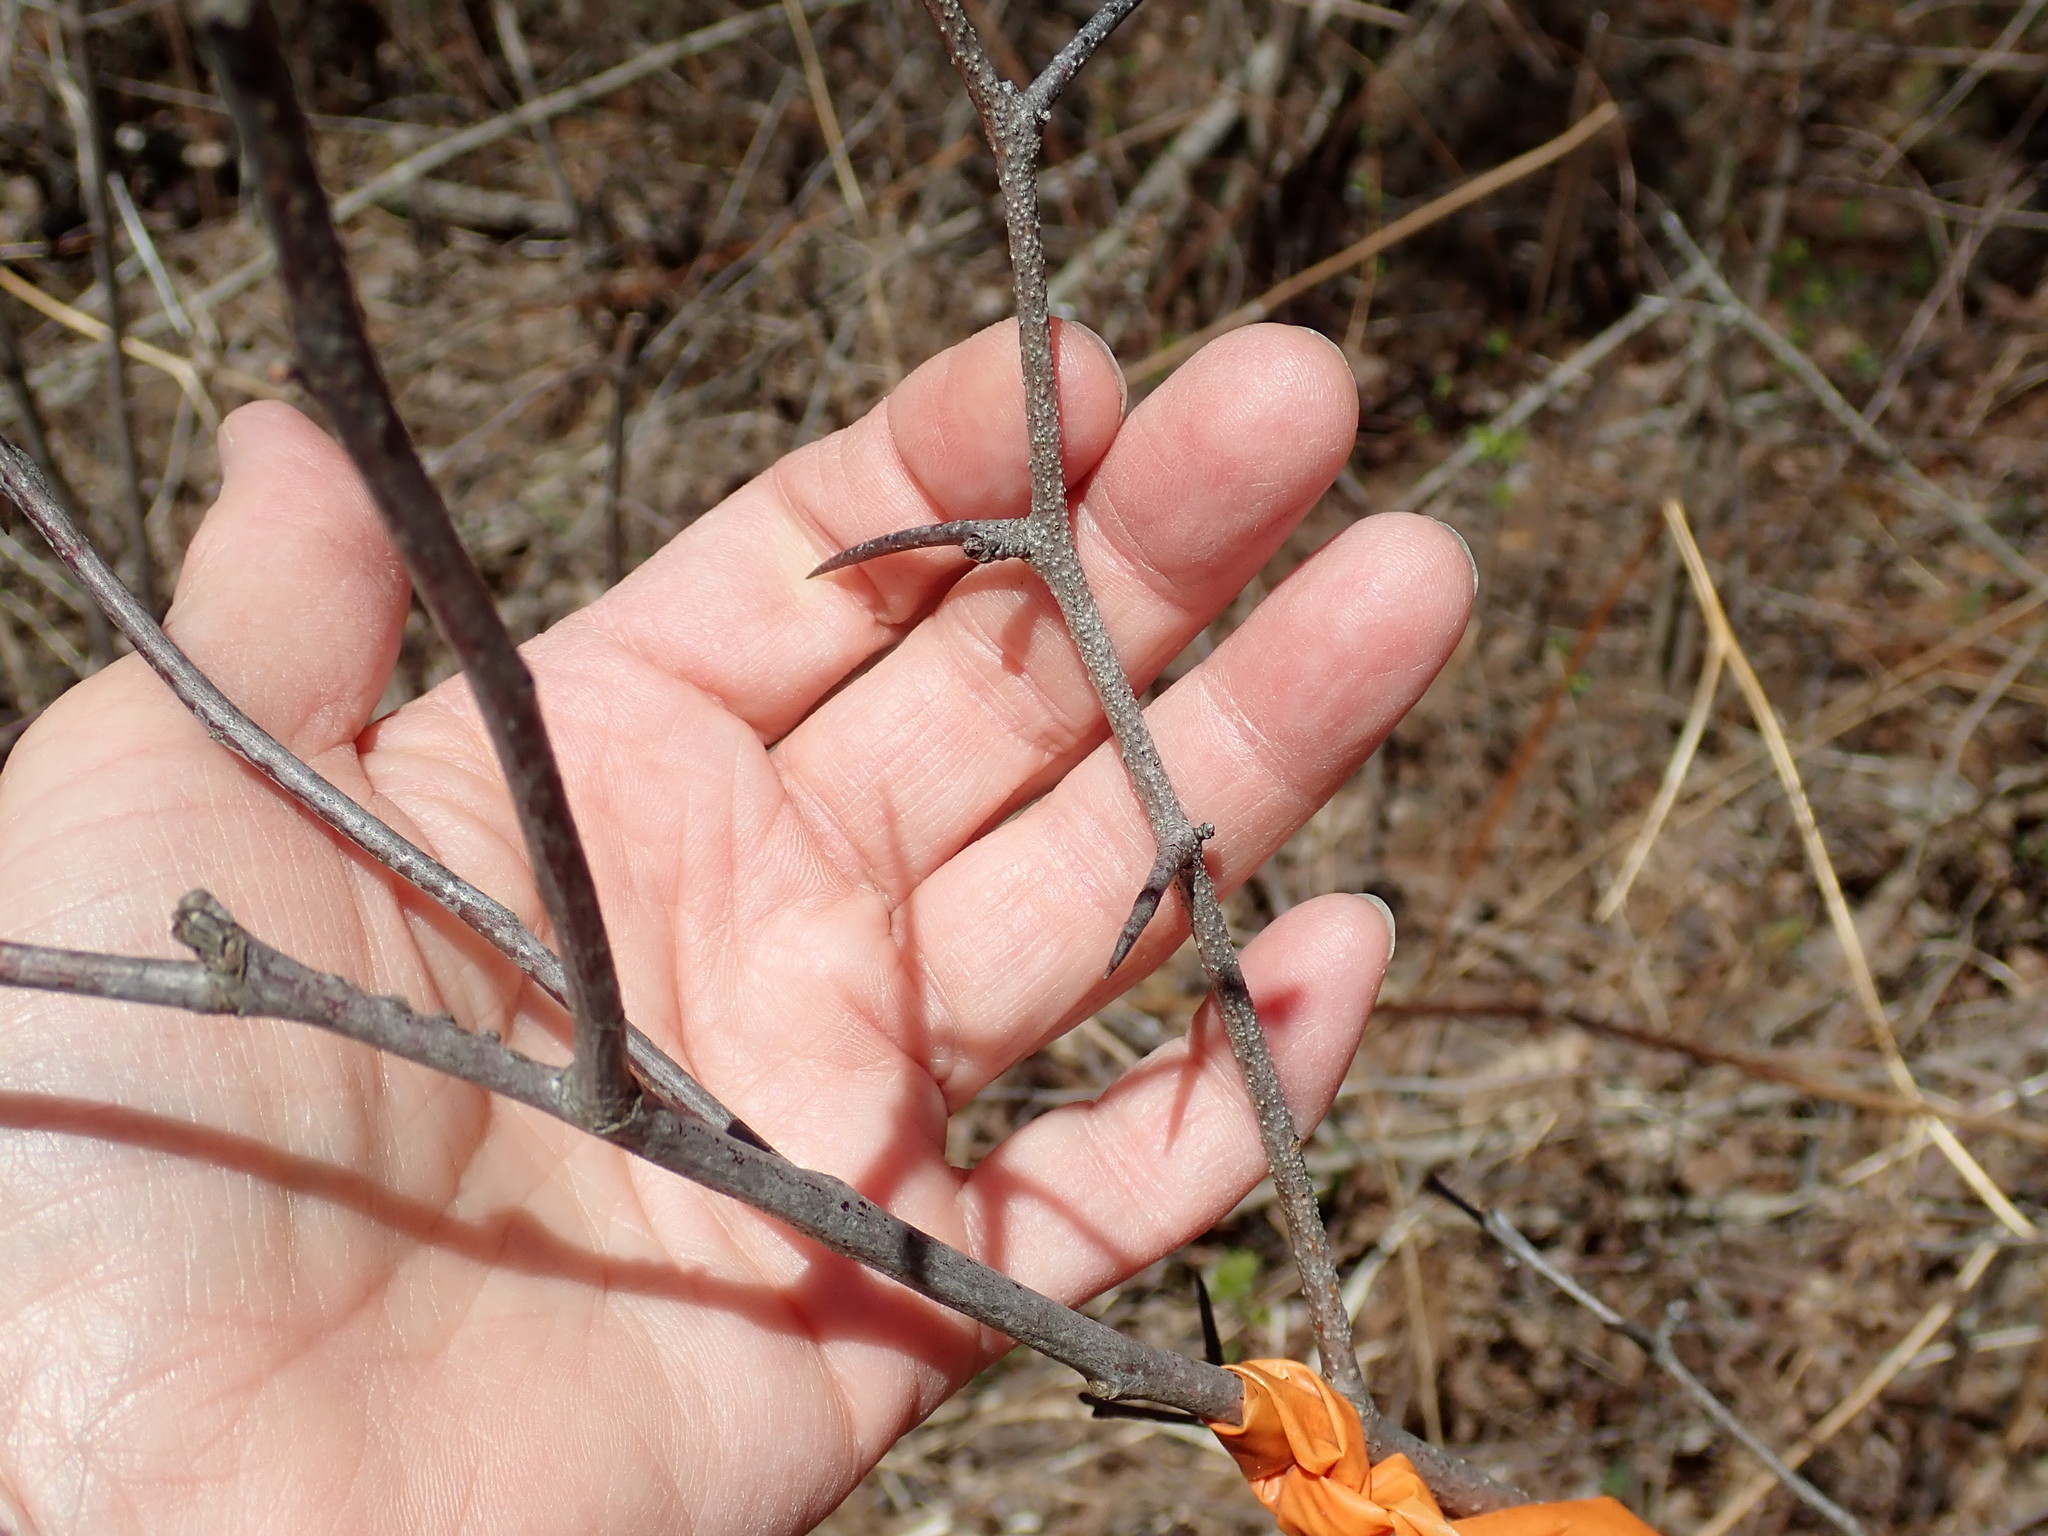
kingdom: Plantae
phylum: Tracheophyta
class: Magnoliopsida
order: Rosales
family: Rosaceae
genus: Crataegus
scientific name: Crataegus
